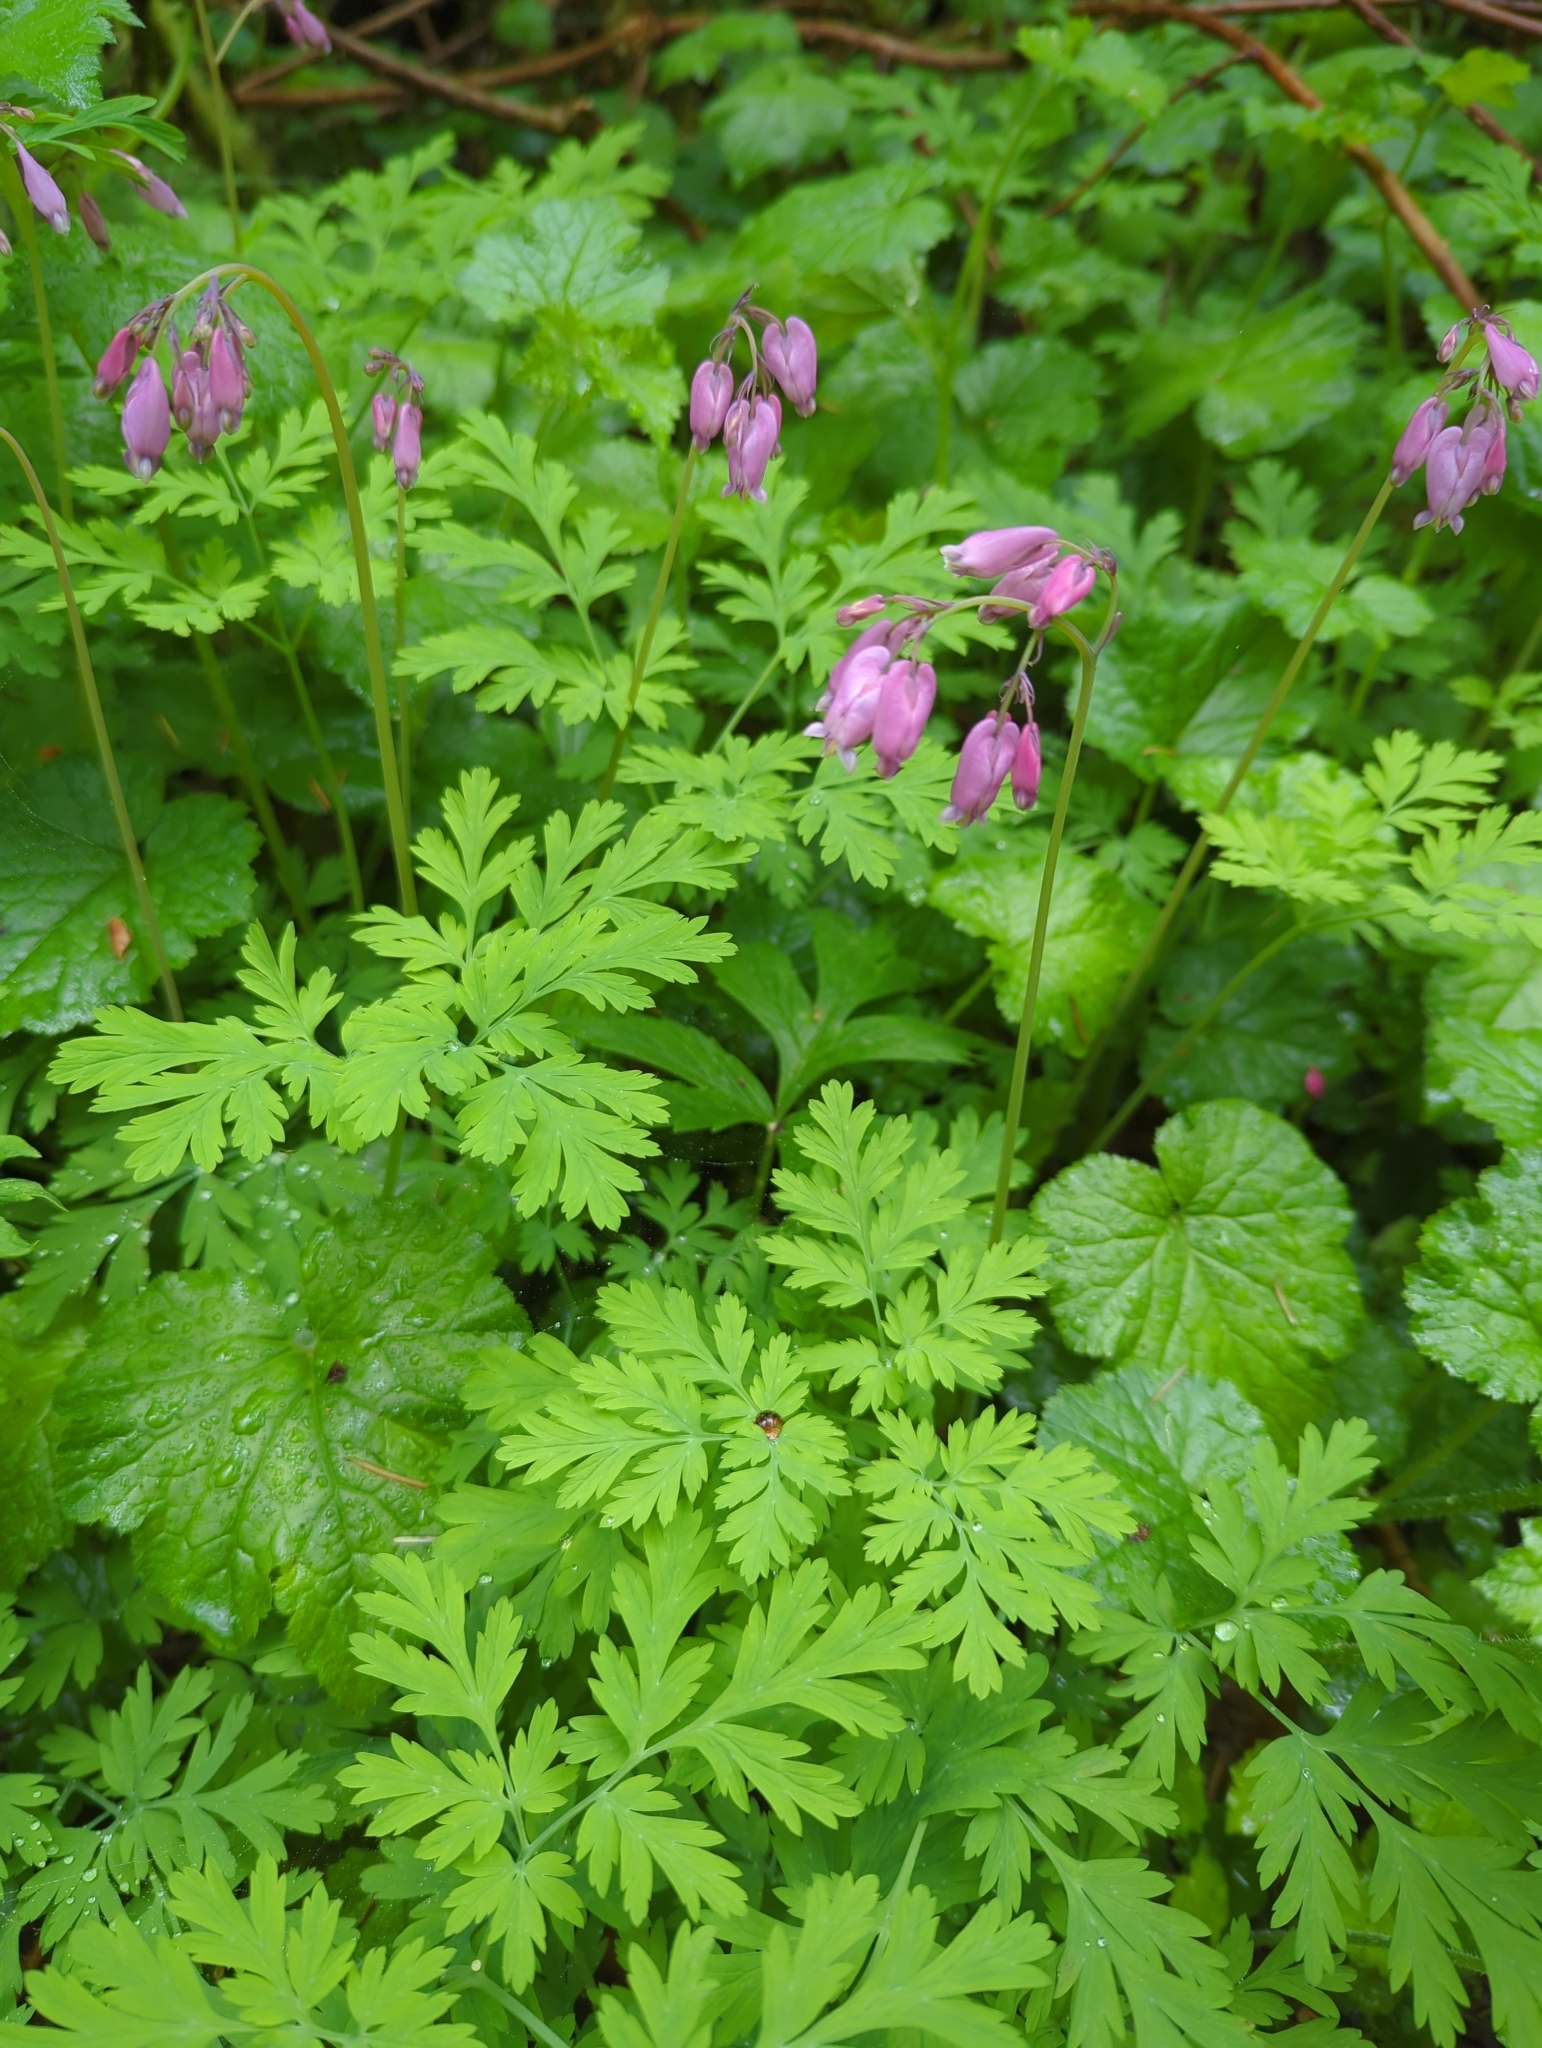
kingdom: Plantae
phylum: Tracheophyta
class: Magnoliopsida
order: Ranunculales
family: Papaveraceae
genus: Dicentra
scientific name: Dicentra formosa
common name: Bleeding-heart
